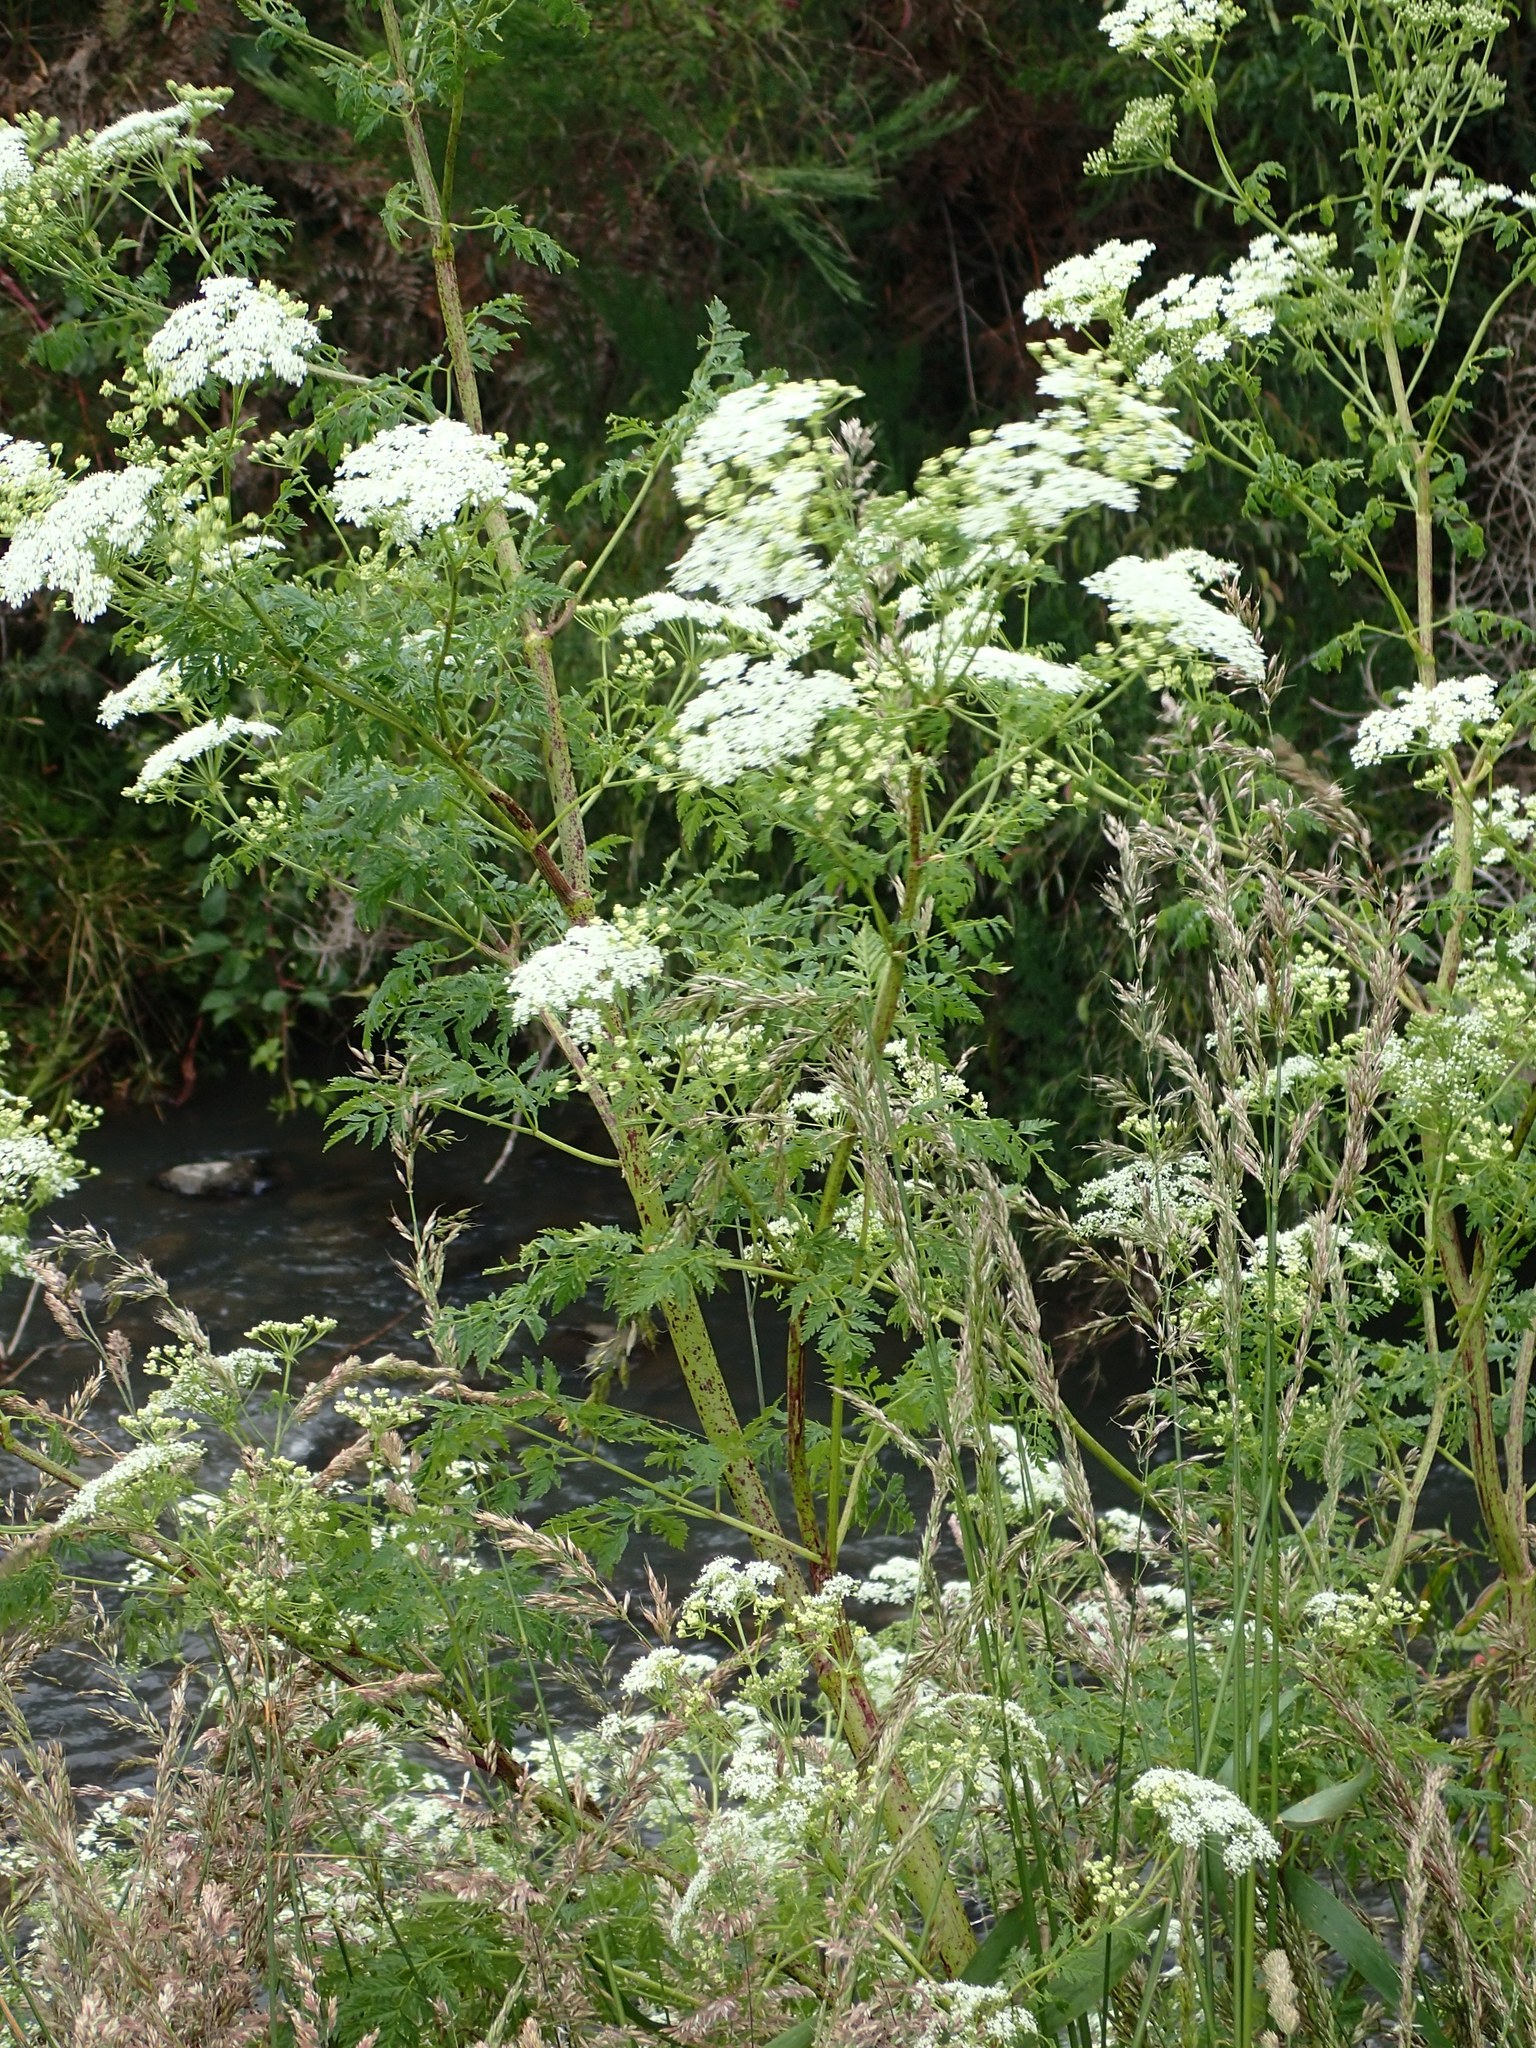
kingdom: Plantae
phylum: Tracheophyta
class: Magnoliopsida
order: Apiales
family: Apiaceae
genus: Conium
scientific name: Conium maculatum
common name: Hemlock
